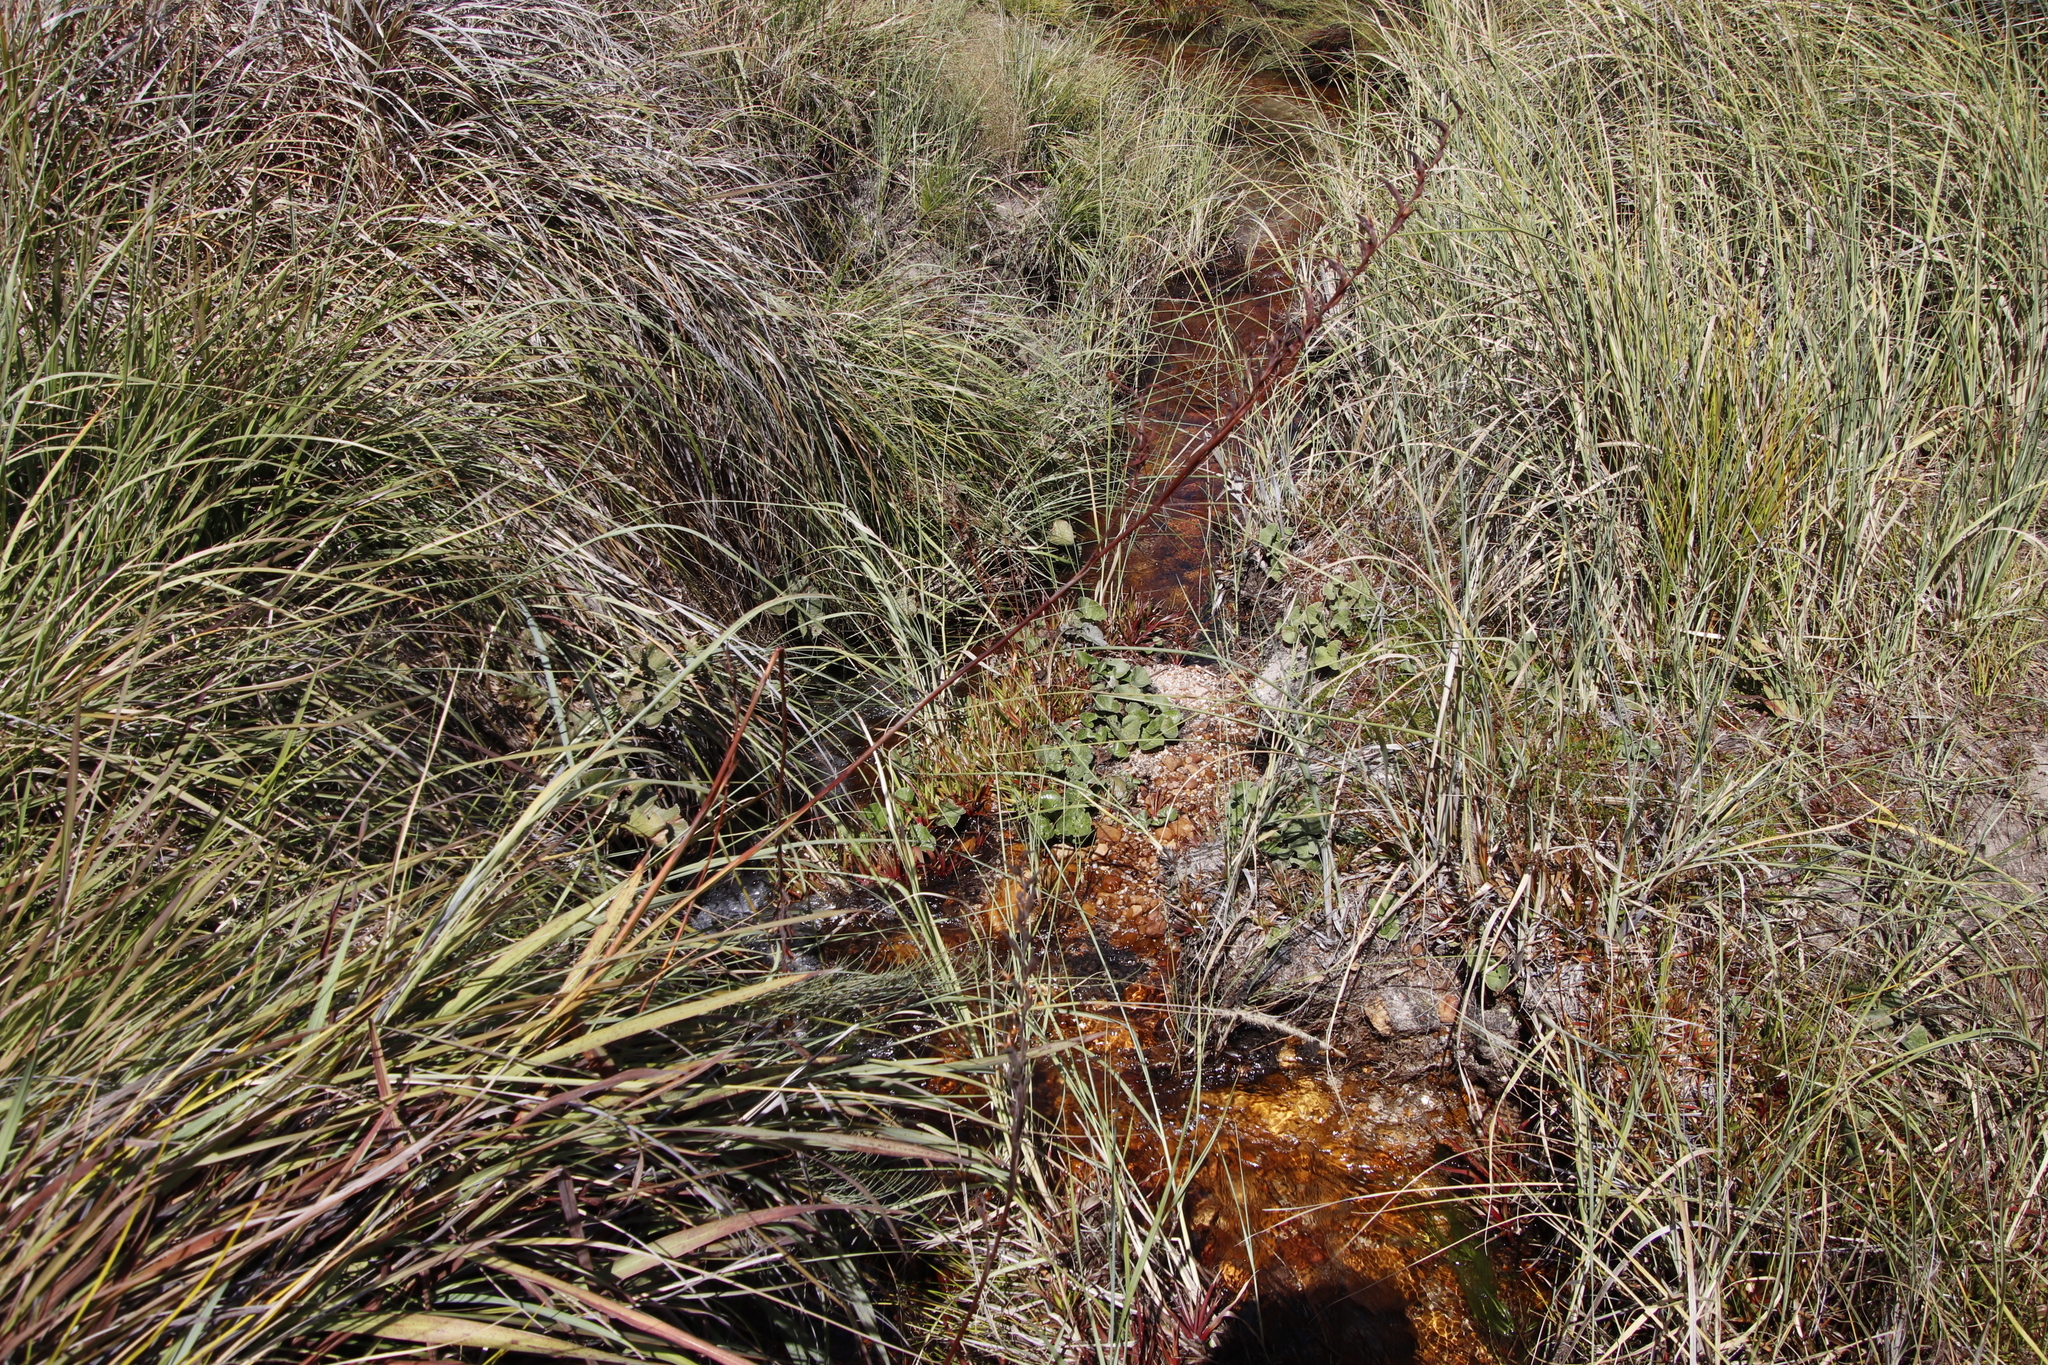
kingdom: Plantae
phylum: Tracheophyta
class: Liliopsida
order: Poales
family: Juncaceae
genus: Juncus
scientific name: Juncus lomatophyllus
